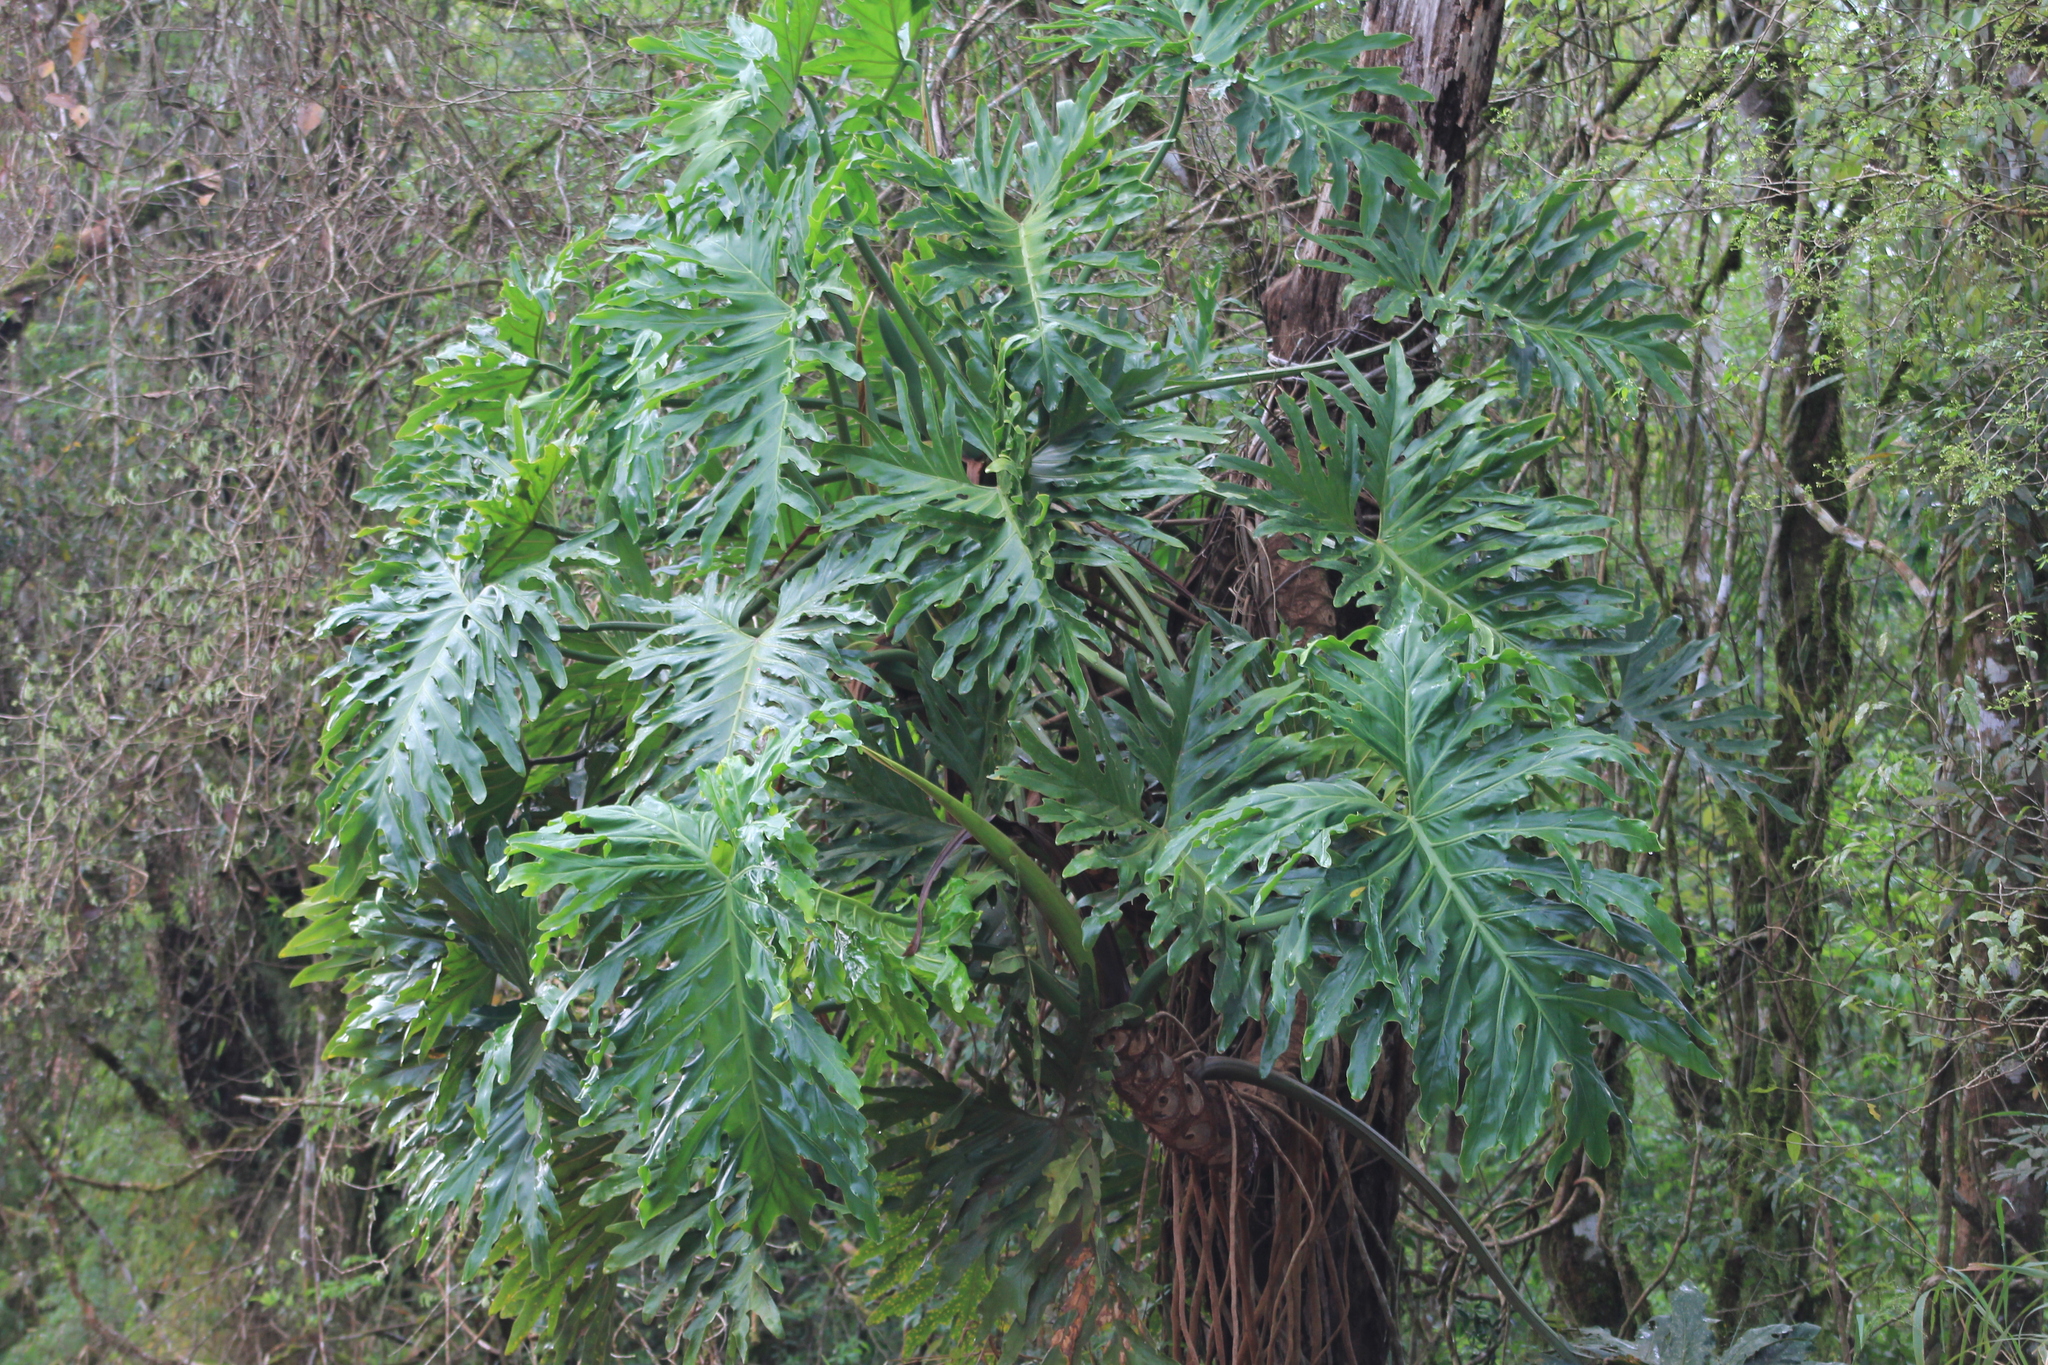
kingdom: Plantae
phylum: Tracheophyta
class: Liliopsida
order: Alismatales
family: Araceae
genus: Thaumatophyllum
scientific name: Thaumatophyllum bipinnatifidum
